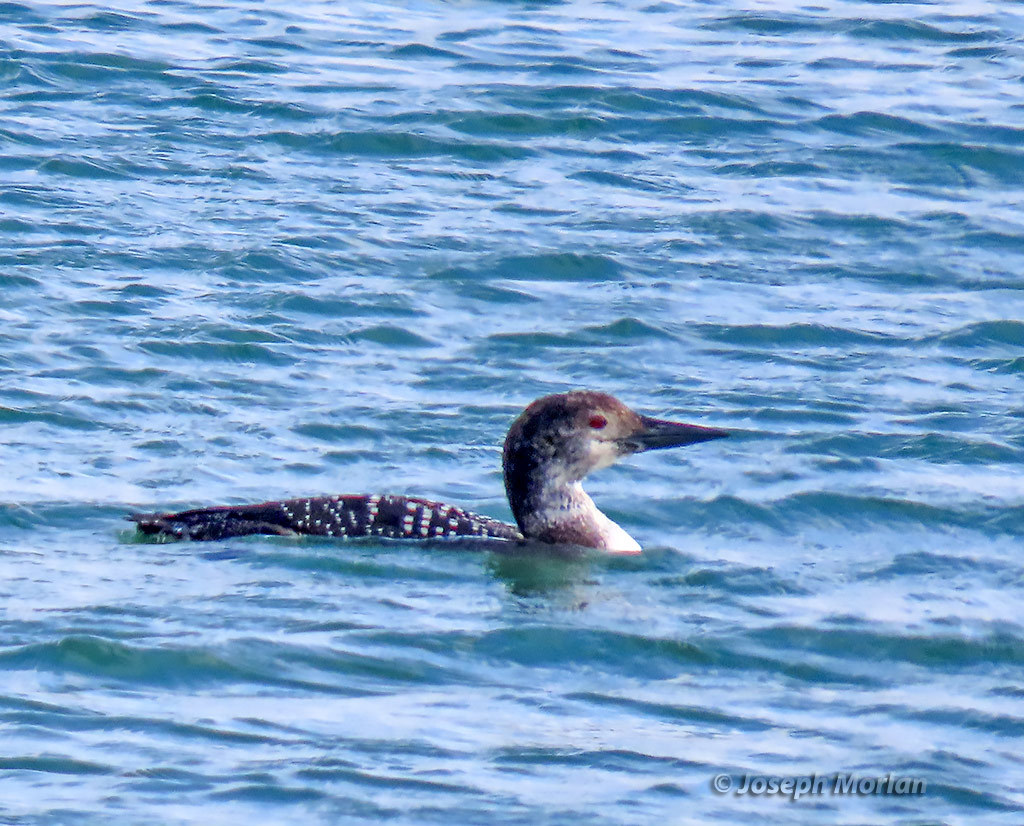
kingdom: Animalia
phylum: Chordata
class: Aves
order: Gaviiformes
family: Gaviidae
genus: Gavia
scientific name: Gavia immer
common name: Common loon
